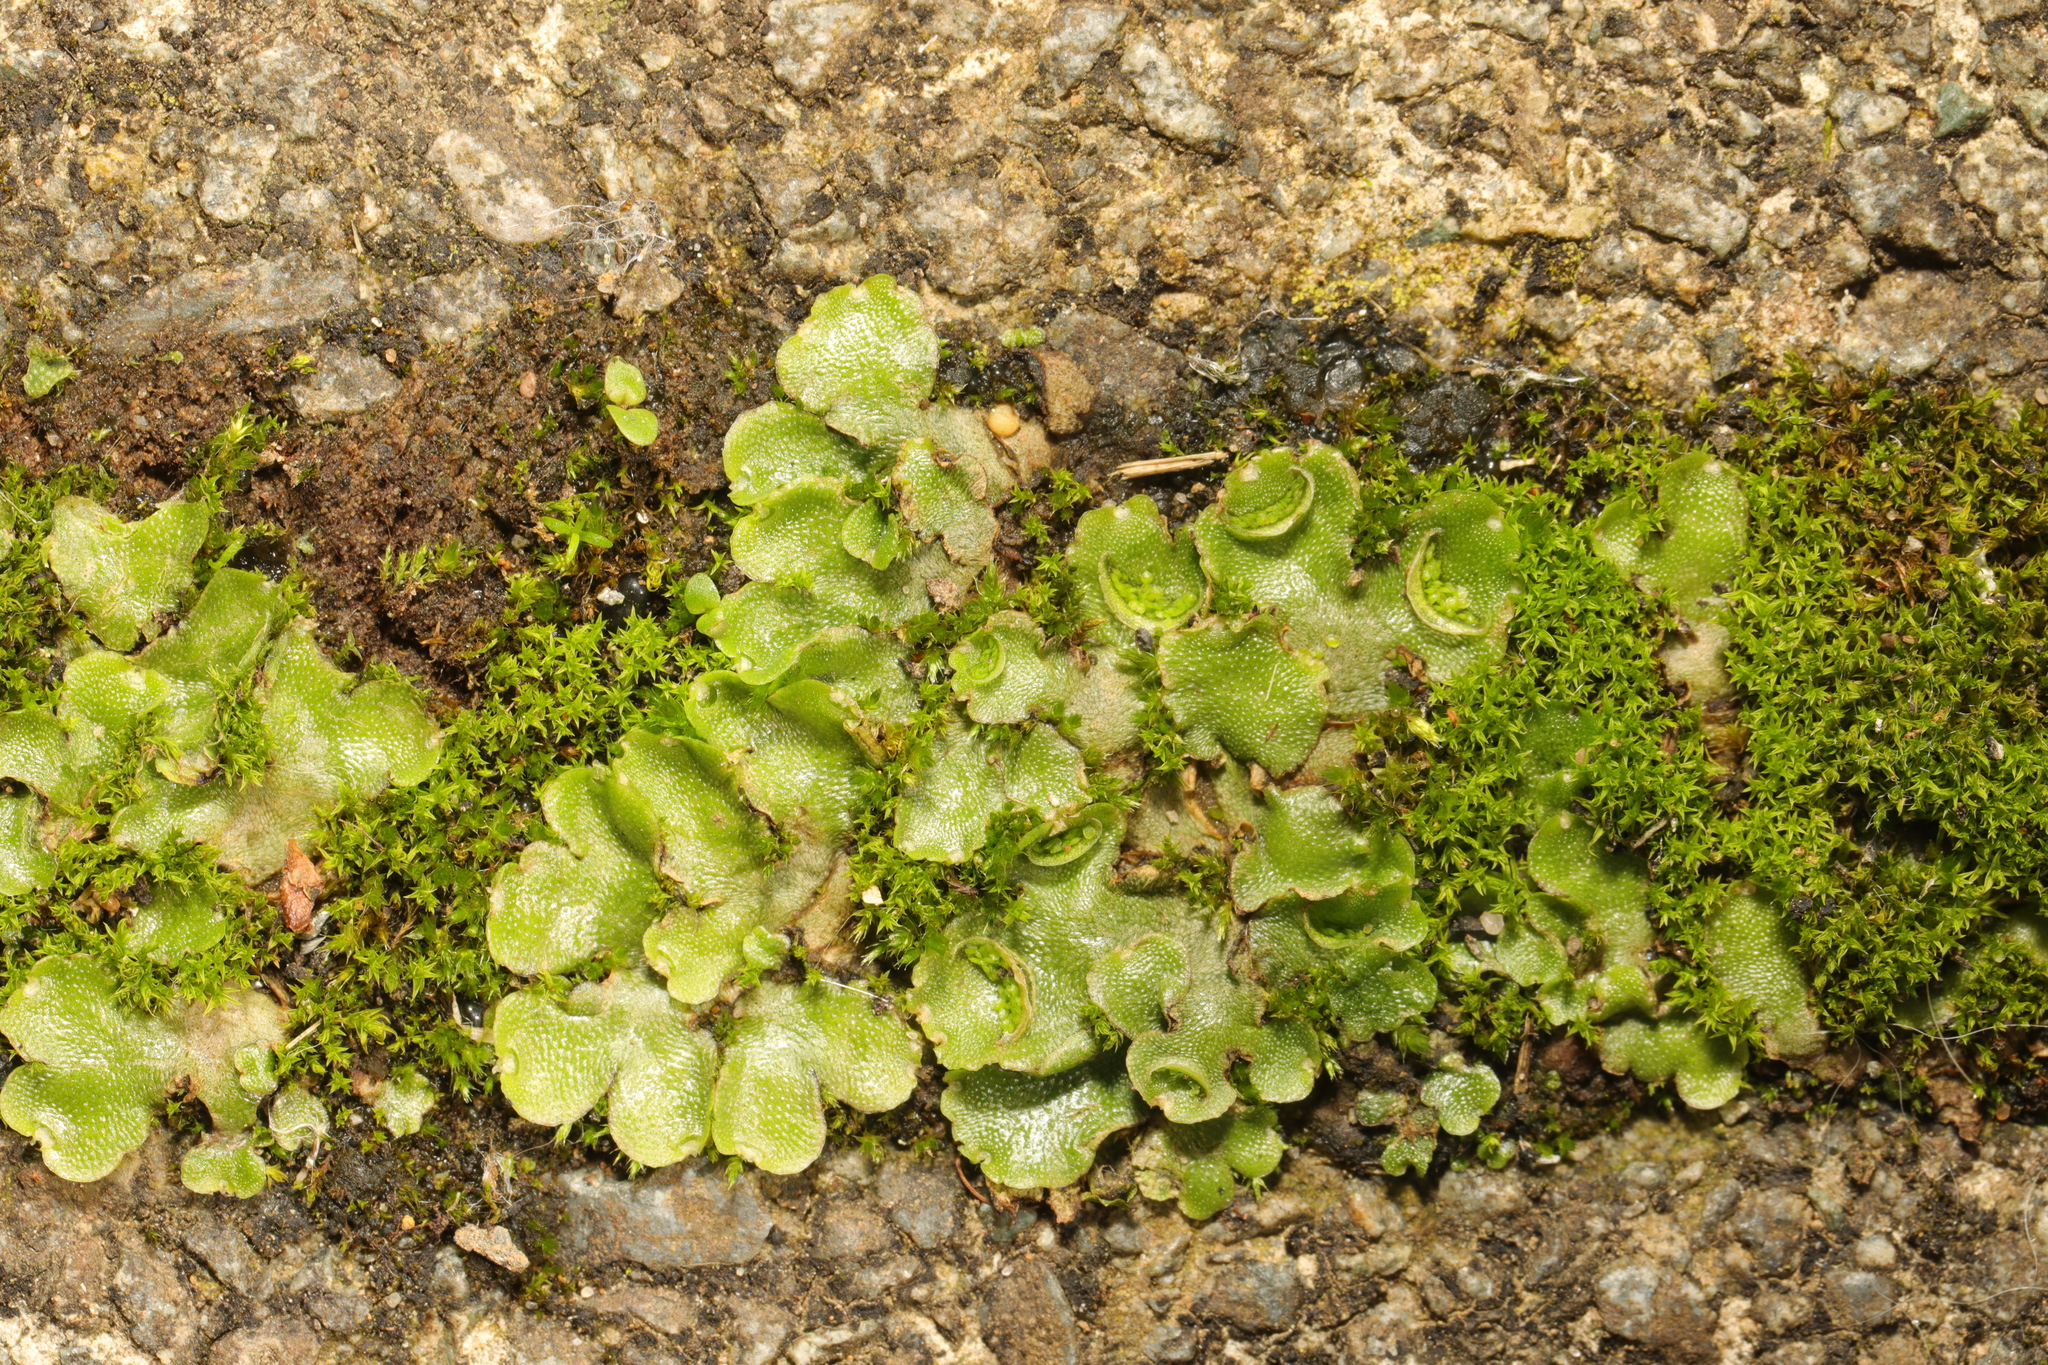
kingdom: Plantae
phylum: Marchantiophyta
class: Marchantiopsida
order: Lunulariales
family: Lunulariaceae
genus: Lunularia
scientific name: Lunularia cruciata
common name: Crescent-cup liverwort
